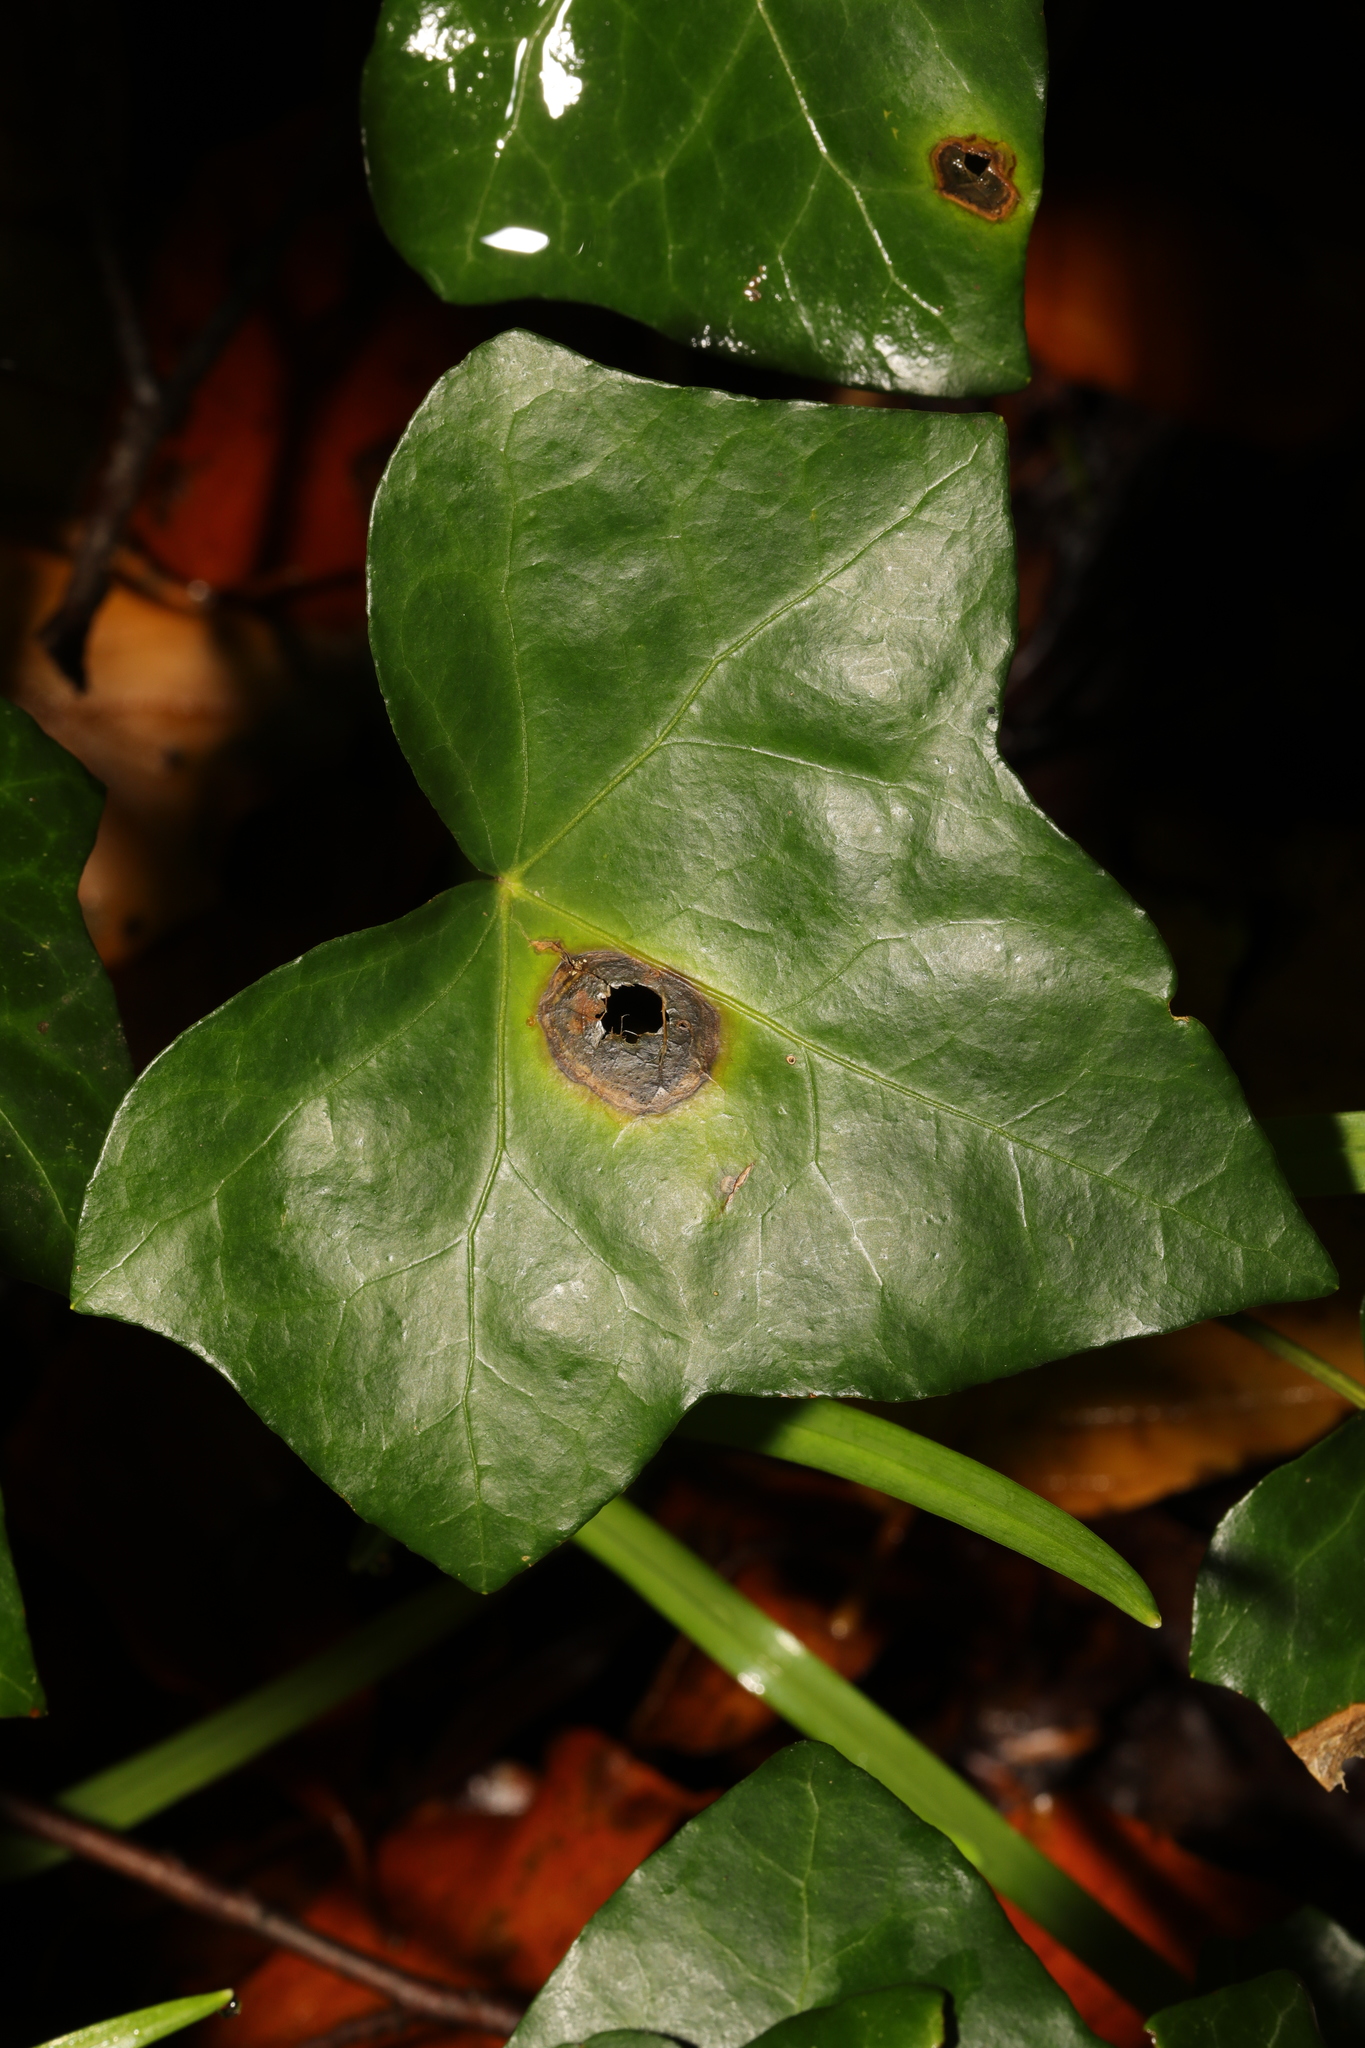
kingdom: Fungi
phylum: Ascomycota
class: Dothideomycetes
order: Pleosporales
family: Didymellaceae
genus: Boeremia
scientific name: Boeremia hedericola
